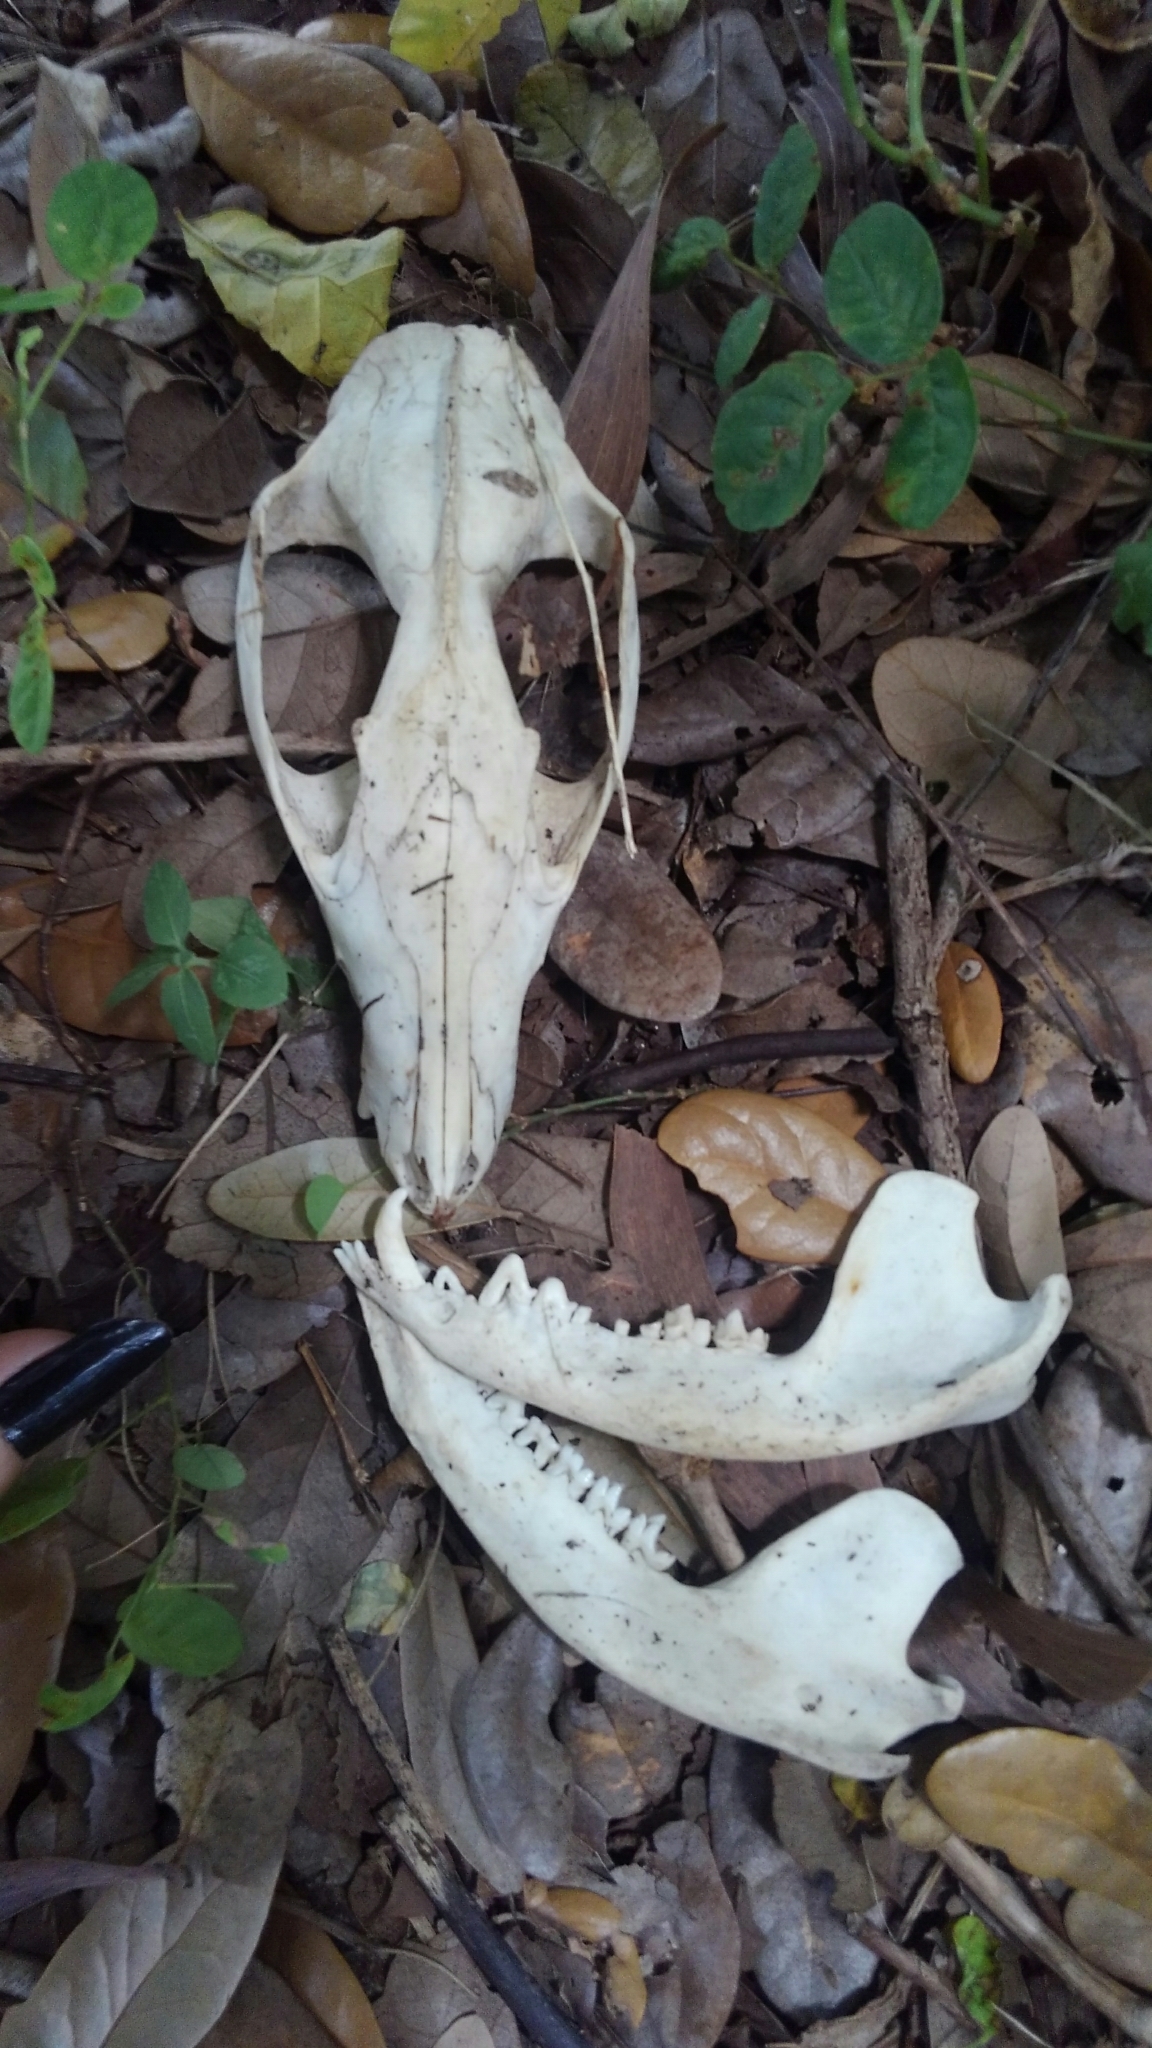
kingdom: Animalia
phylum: Chordata
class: Mammalia
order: Didelphimorphia
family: Didelphidae
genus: Didelphis
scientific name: Didelphis virginiana
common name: Virginia opossum
